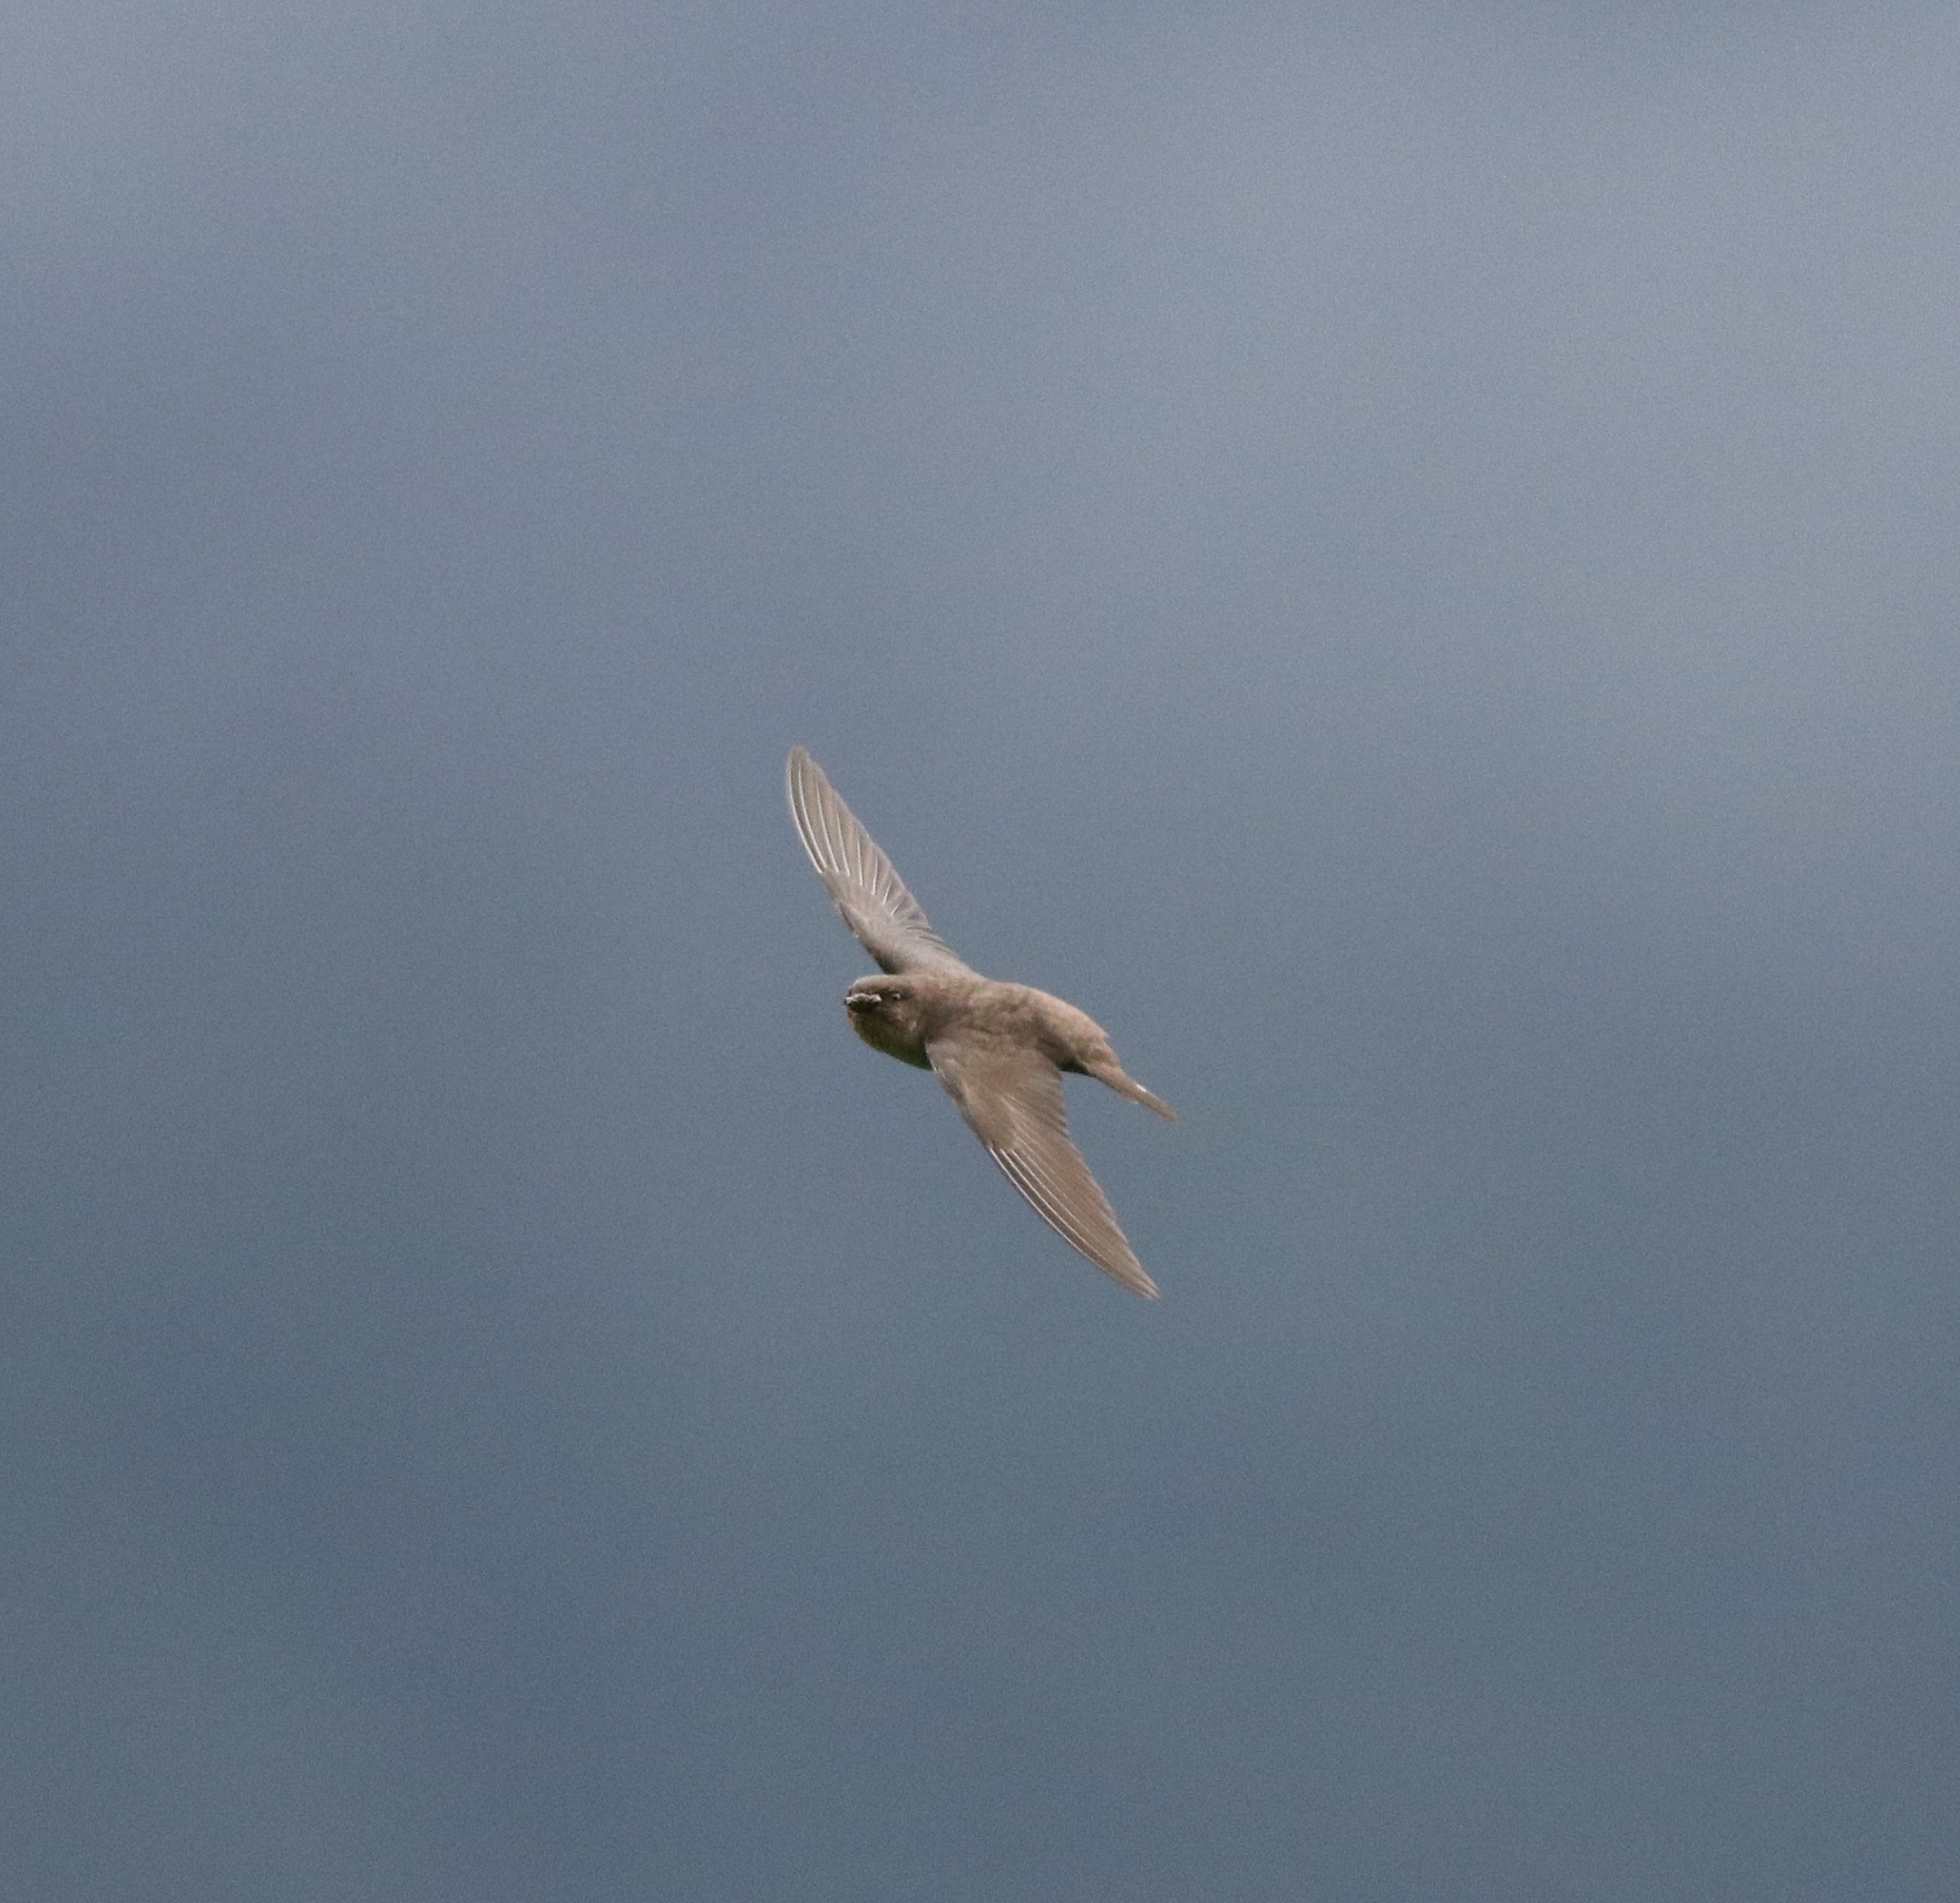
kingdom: Animalia
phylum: Chordata
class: Aves
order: Passeriformes
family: Hirundinidae
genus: Ptyonoprogne
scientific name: Ptyonoprogne concolor
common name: Dusky crag-martin
